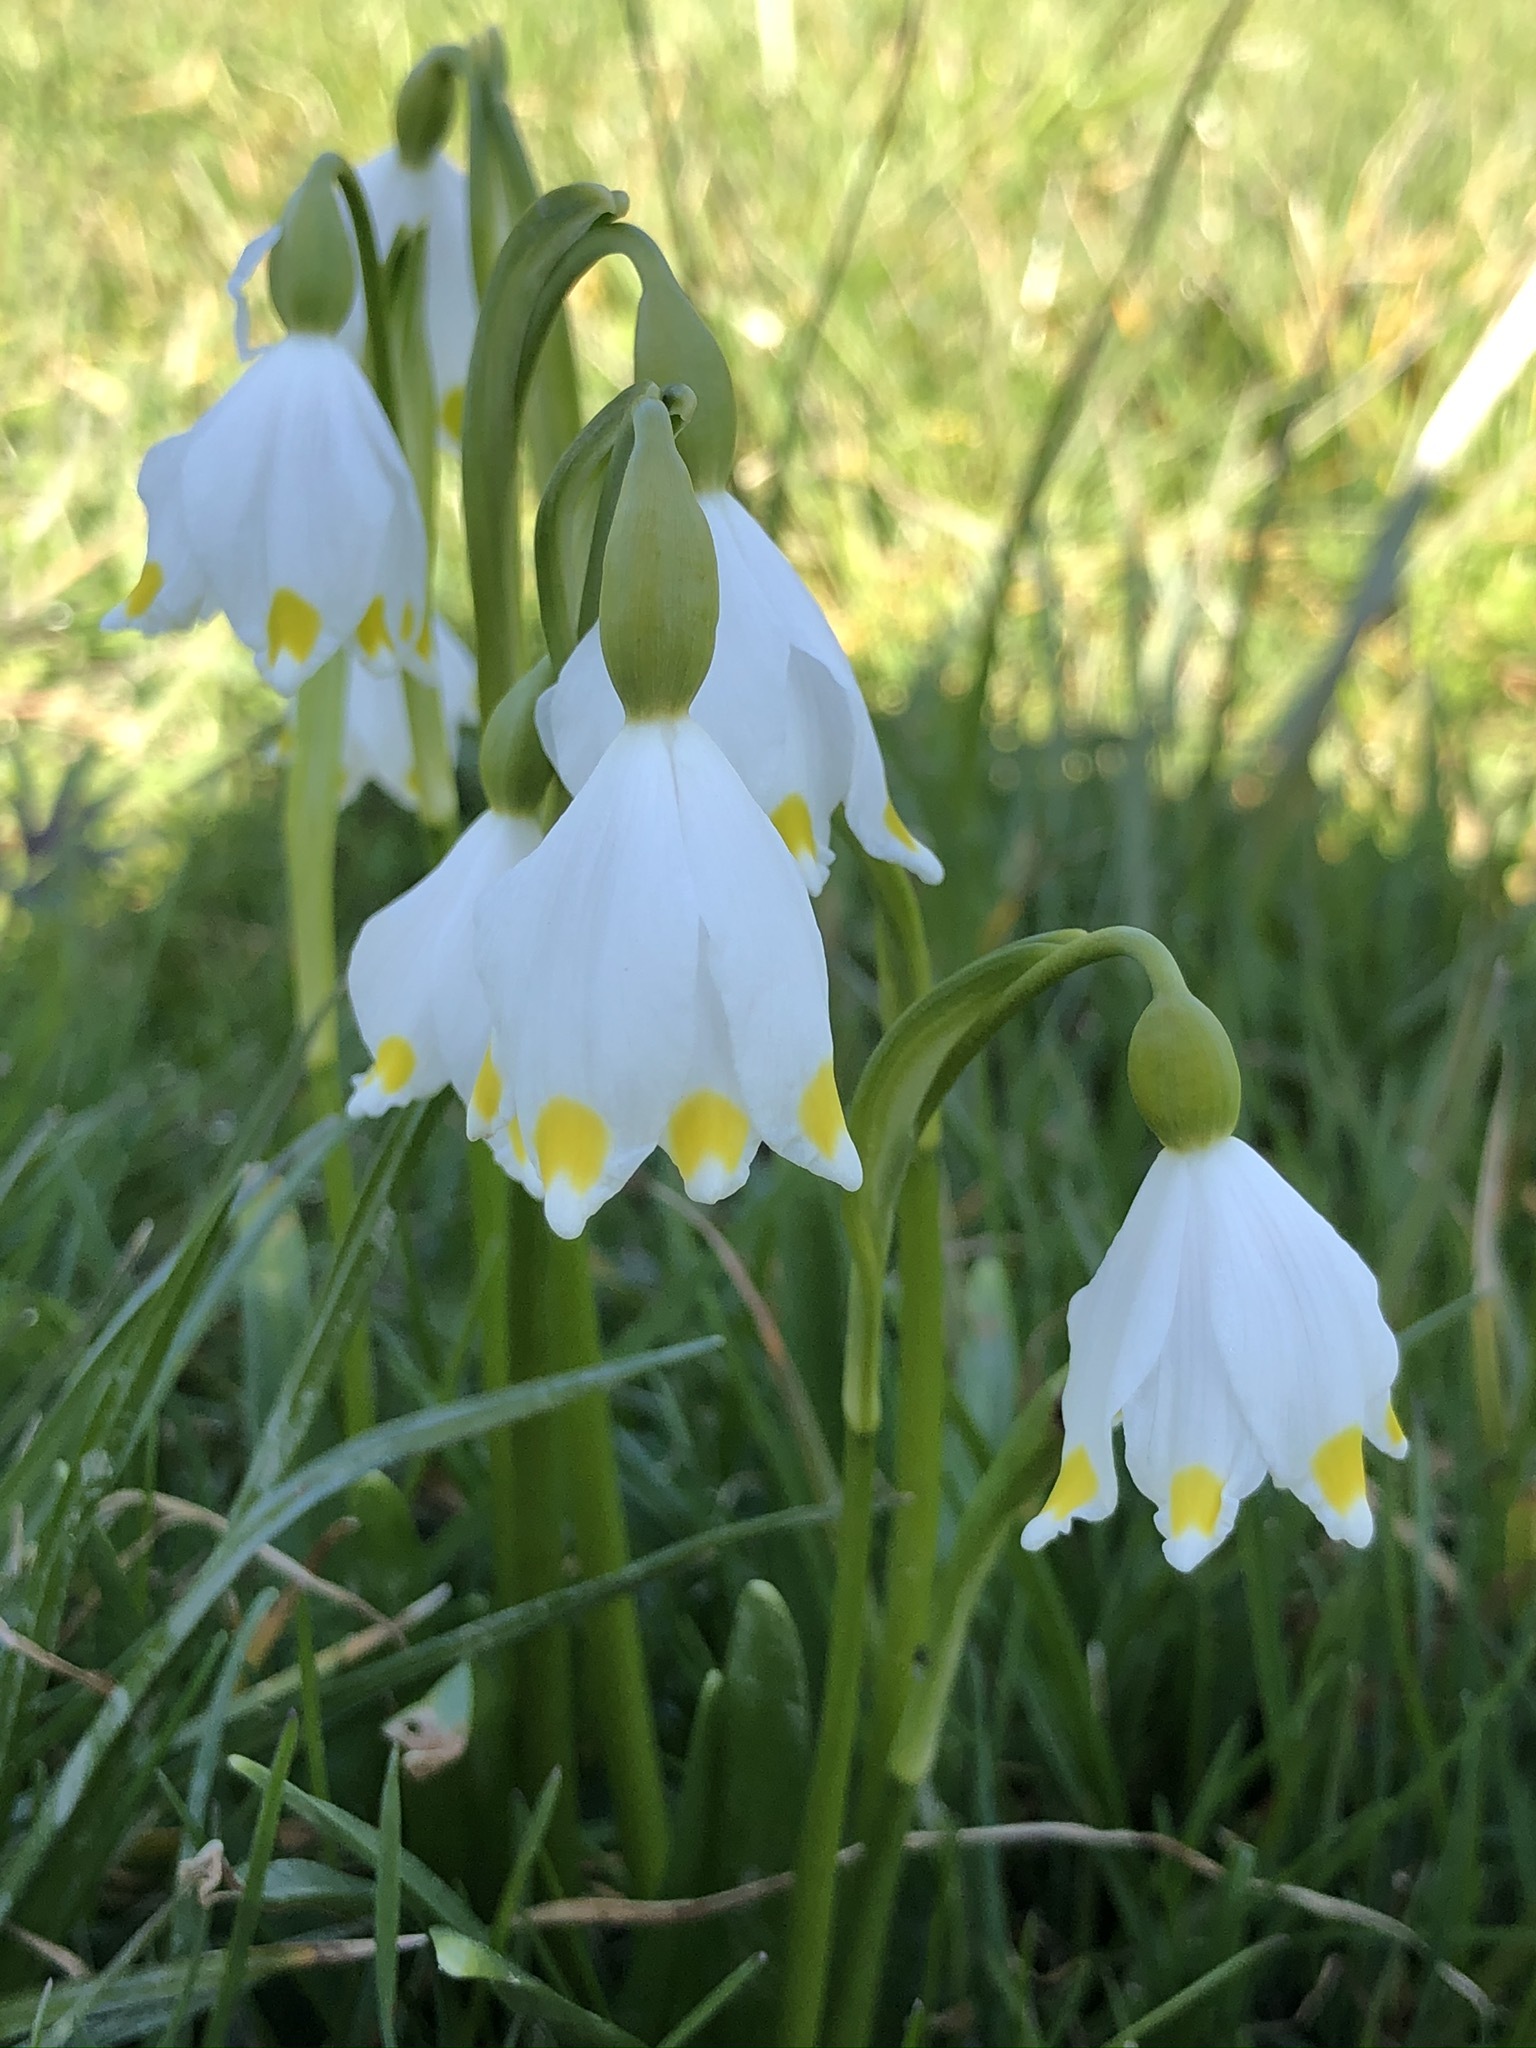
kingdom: Plantae
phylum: Tracheophyta
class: Liliopsida
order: Asparagales
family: Amaryllidaceae
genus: Leucojum
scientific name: Leucojum vernum
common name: Spring snowflake
